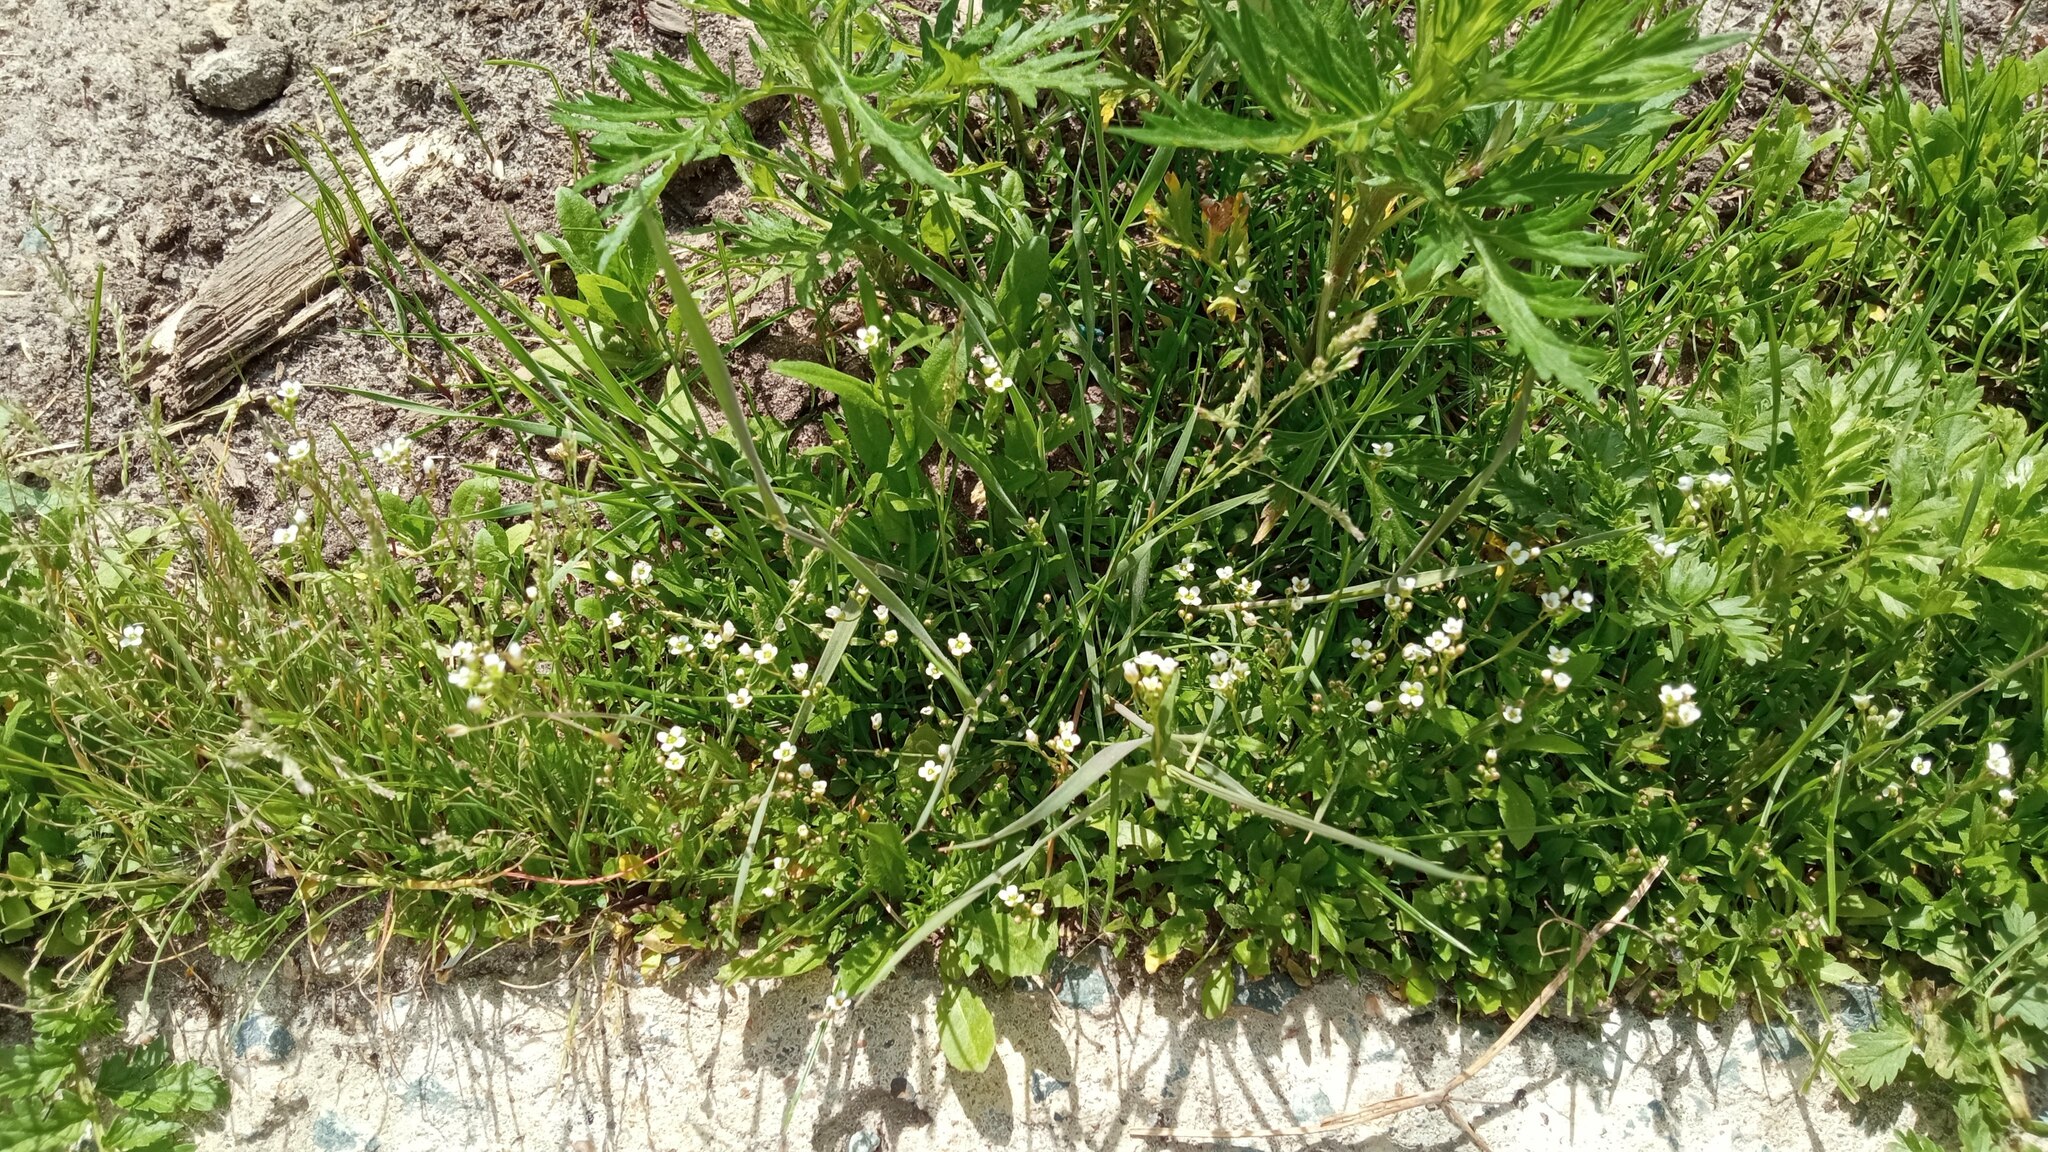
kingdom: Plantae
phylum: Tracheophyta
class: Magnoliopsida
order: Brassicales
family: Brassicaceae
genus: Capsella
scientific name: Capsella bursa-pastoris
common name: Shepherd's purse
